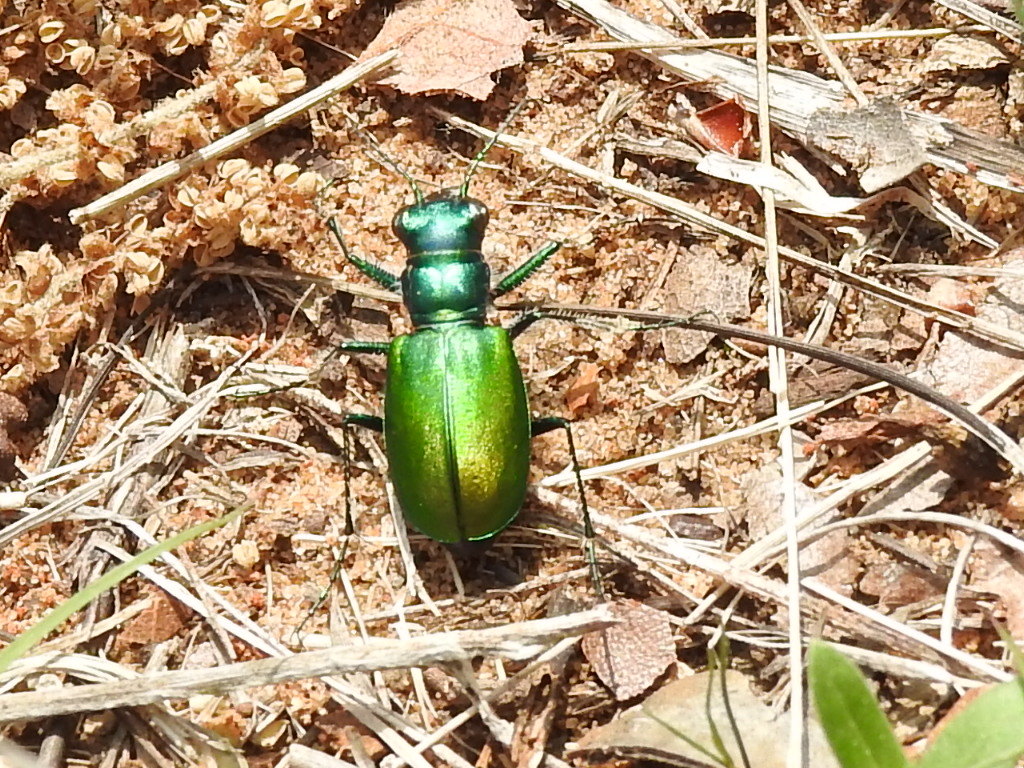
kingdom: Animalia
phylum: Arthropoda
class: Insecta
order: Coleoptera
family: Carabidae
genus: Cicindela
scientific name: Cicindela scutellaris
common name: Festive tiger beetle
